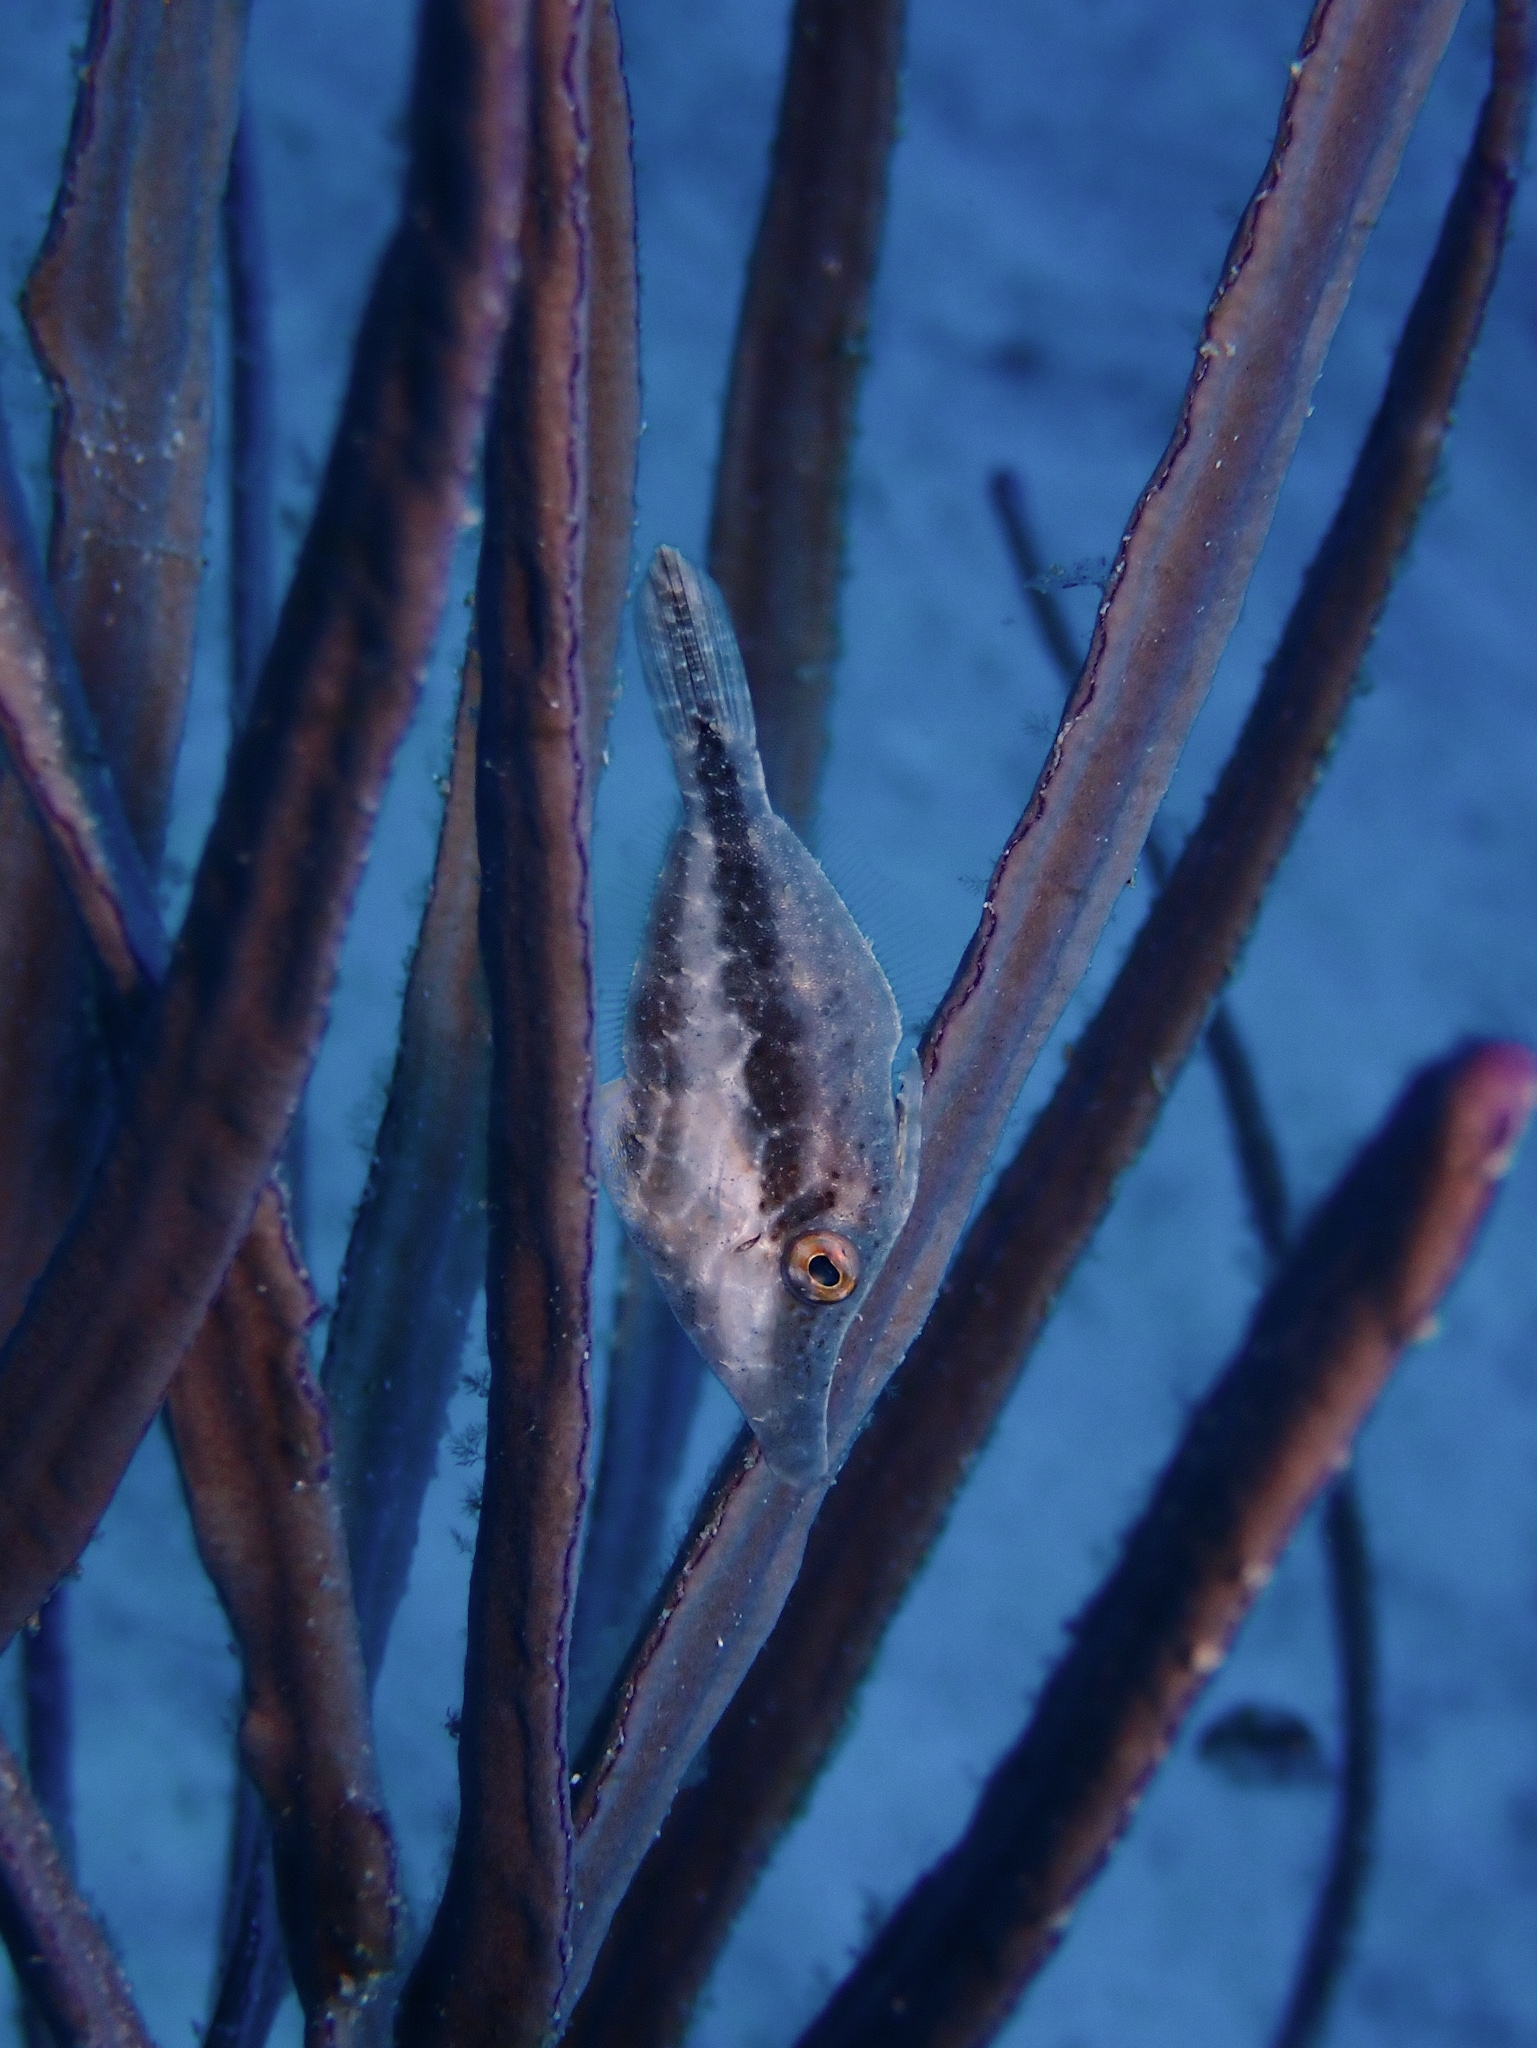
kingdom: Animalia
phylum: Chordata
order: Tetraodontiformes
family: Monacanthidae
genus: Monacanthus
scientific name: Monacanthus tuckeri
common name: Slender filefish
